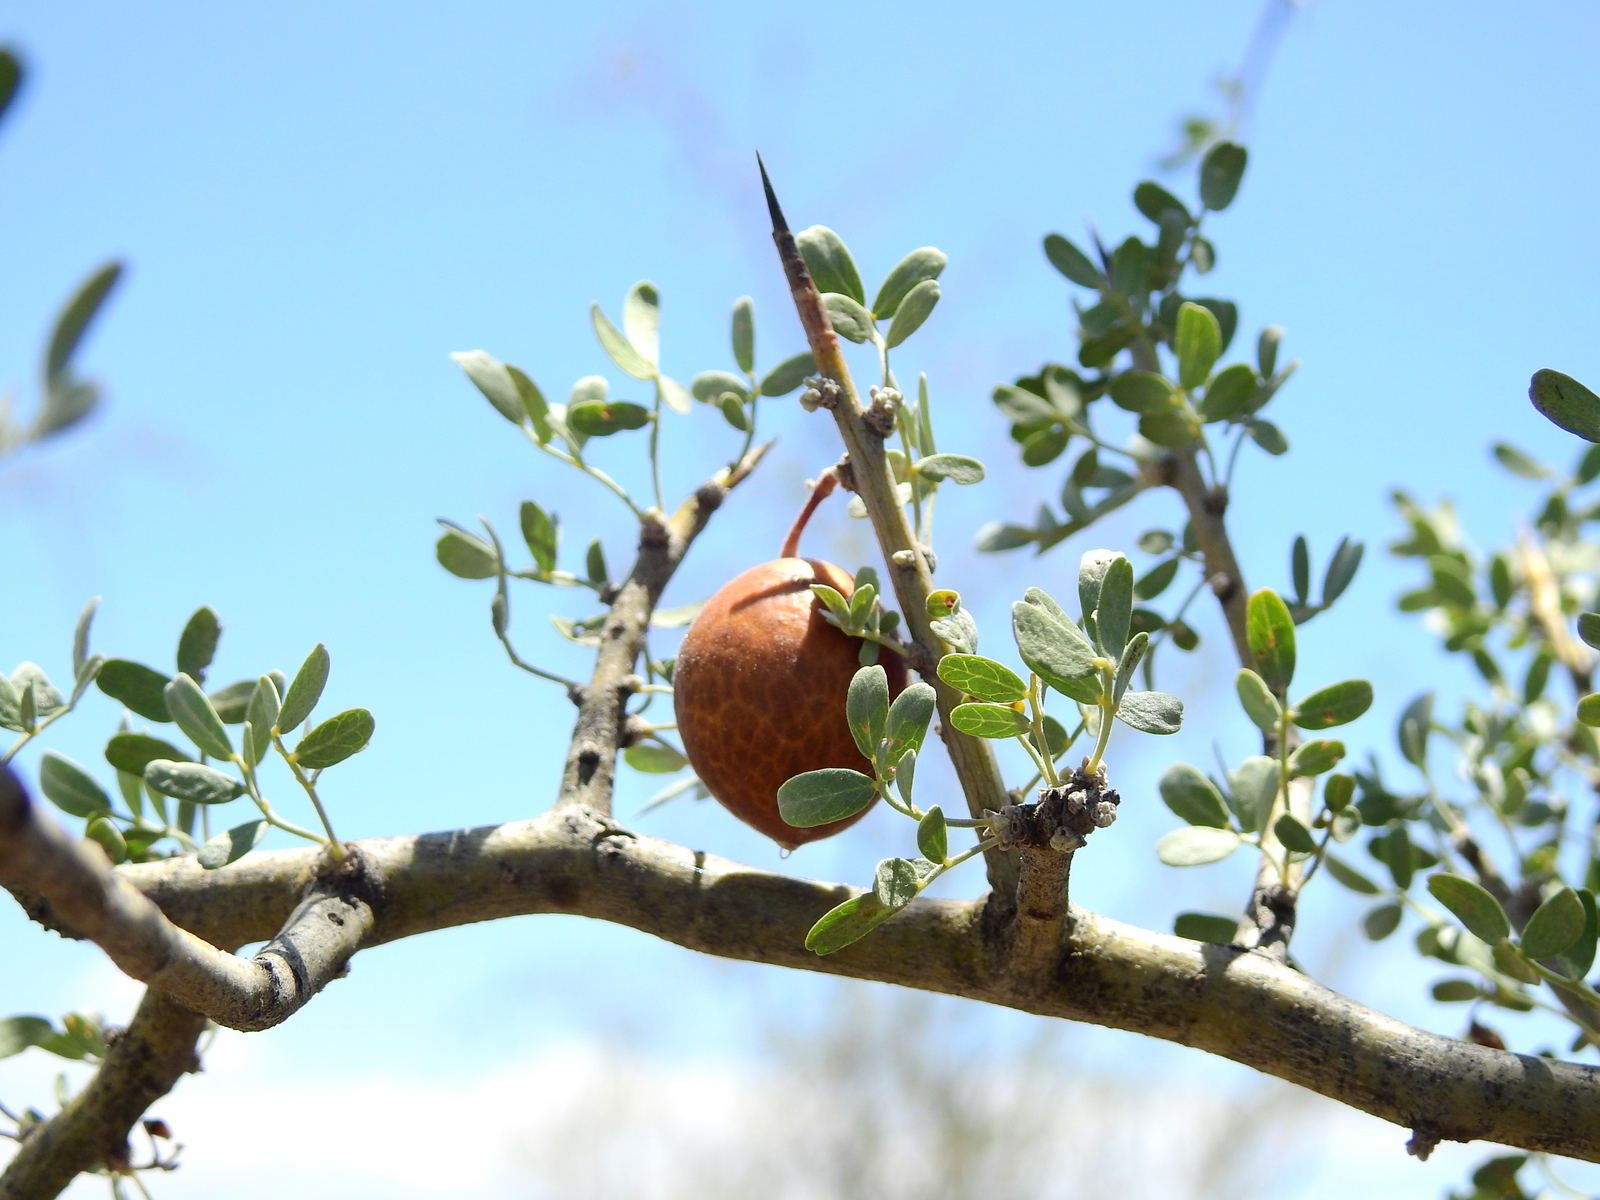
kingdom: Plantae
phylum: Tracheophyta
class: Magnoliopsida
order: Fabales
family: Fabaceae
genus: Geoffroea
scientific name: Geoffroea decorticans
